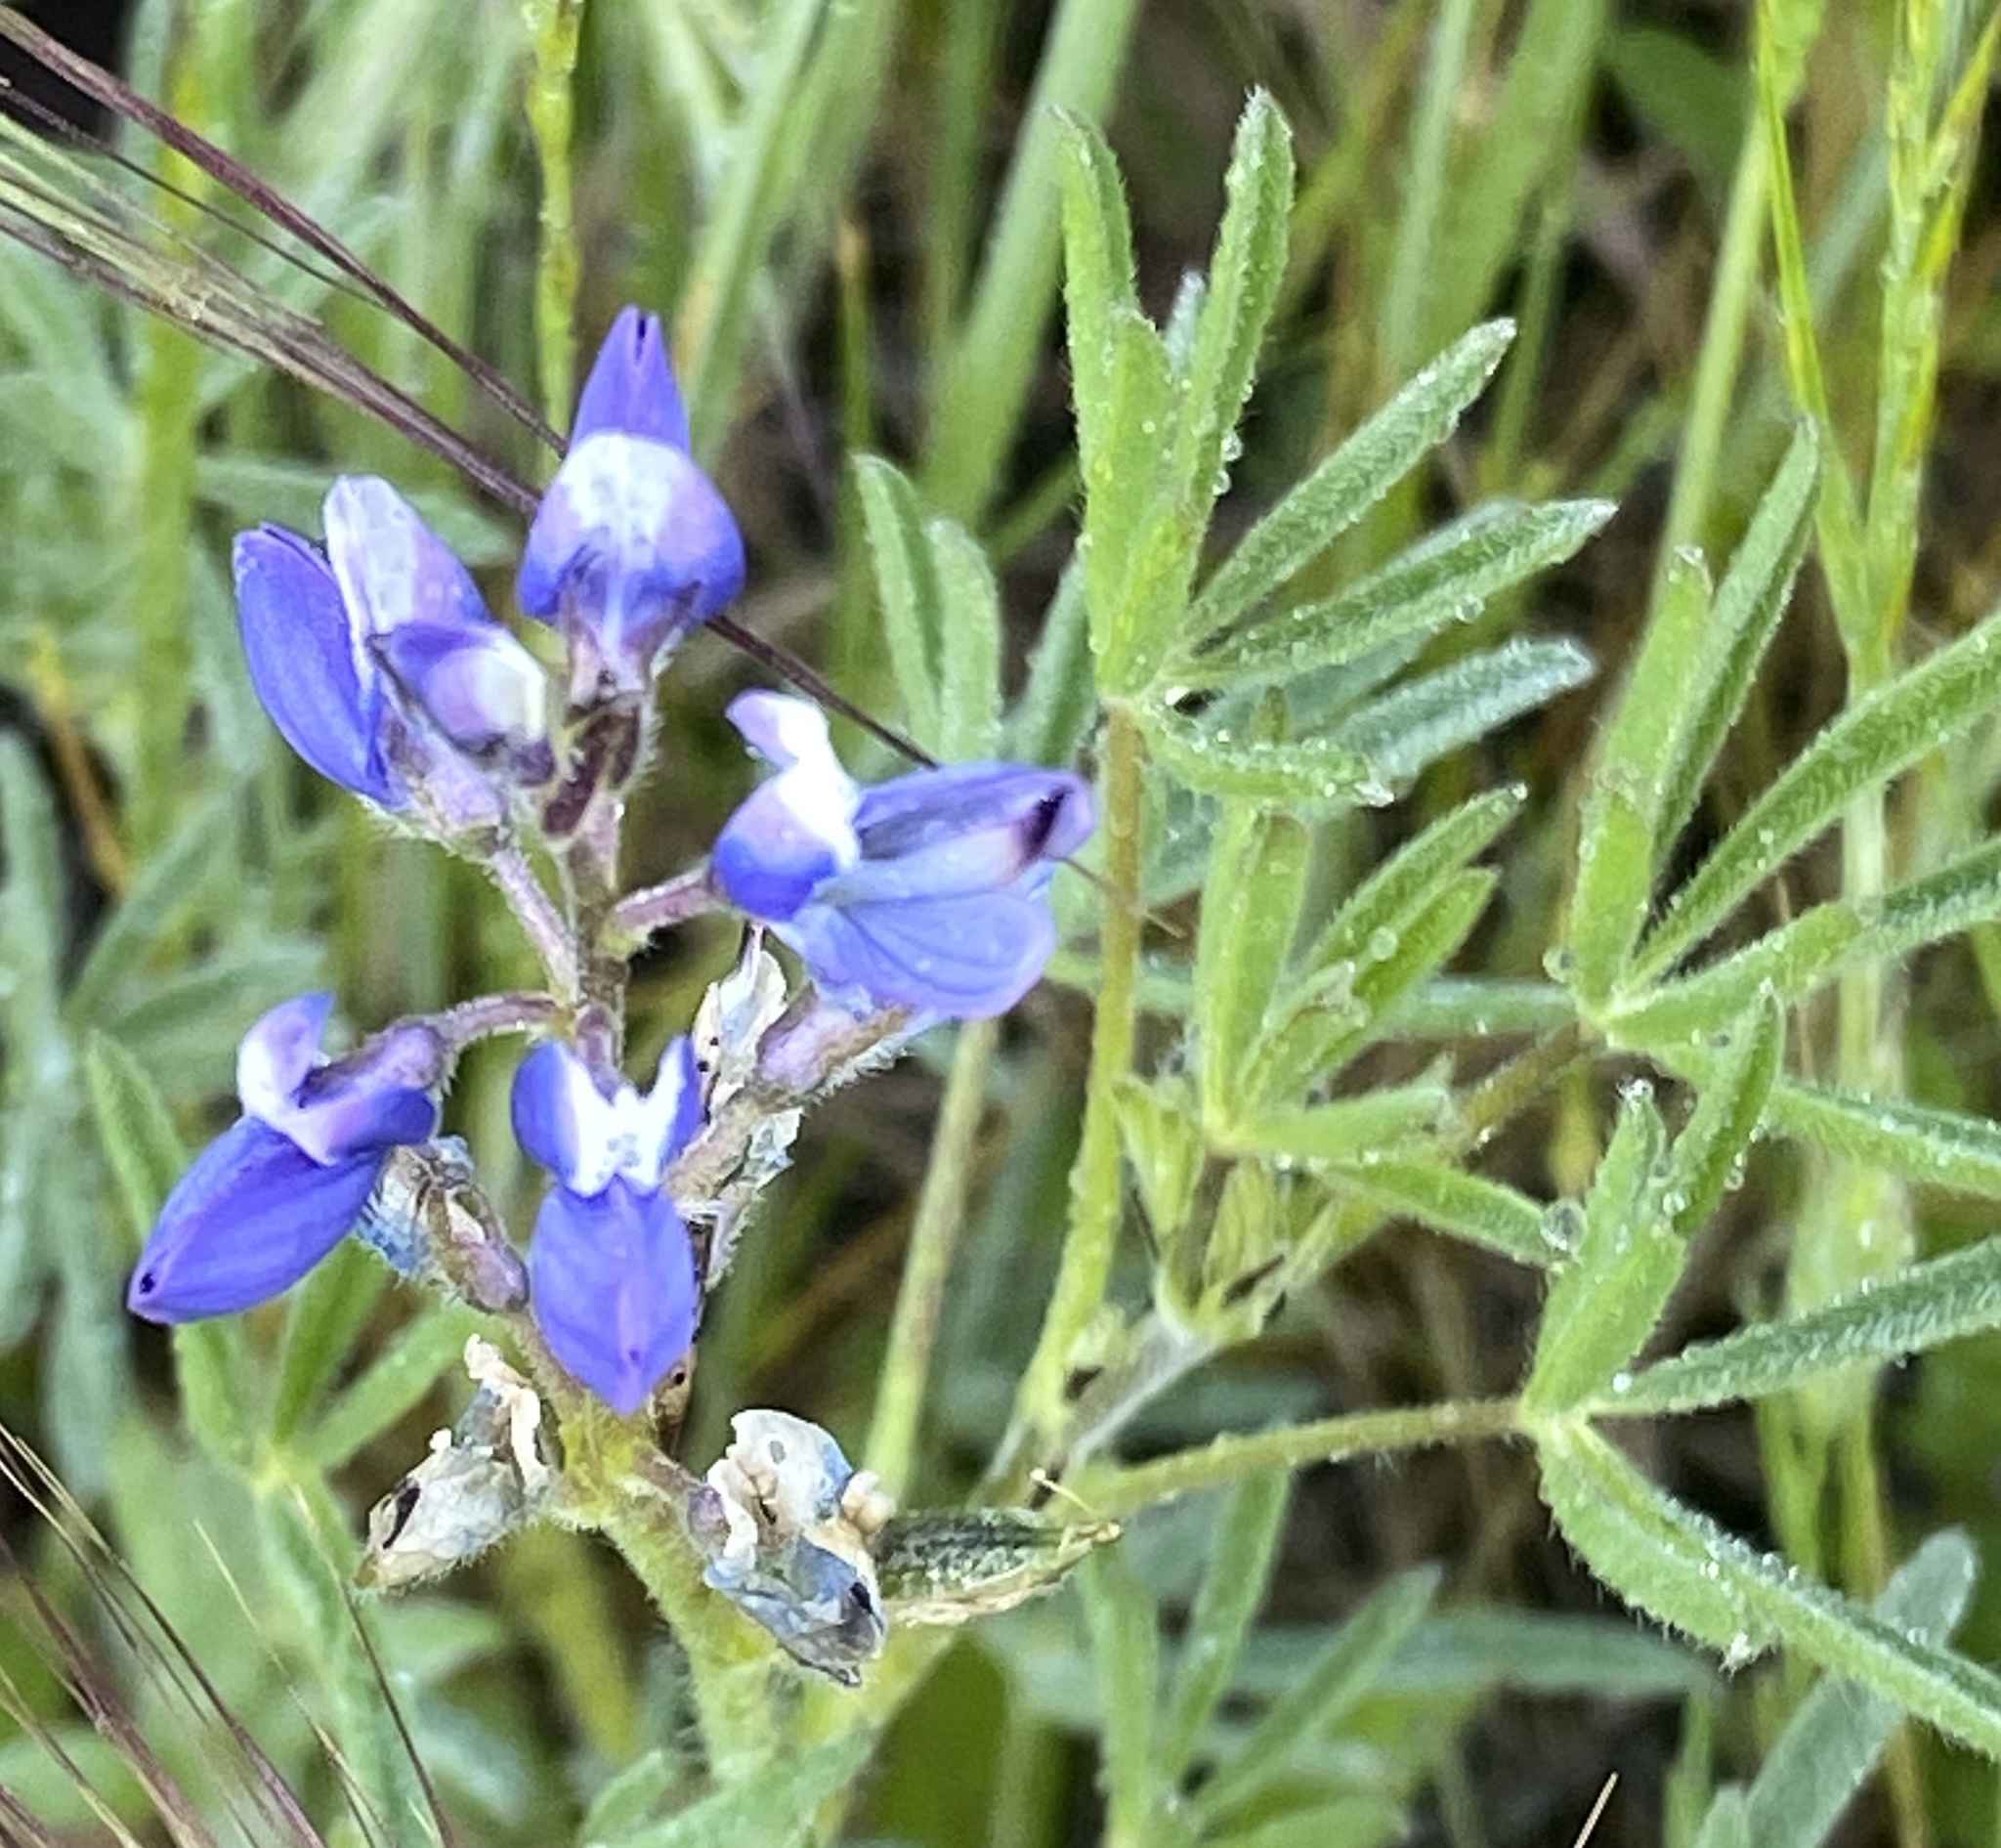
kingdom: Plantae
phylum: Tracheophyta
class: Magnoliopsida
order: Fabales
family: Fabaceae
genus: Lupinus
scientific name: Lupinus bicolor
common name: Miniature lupine
